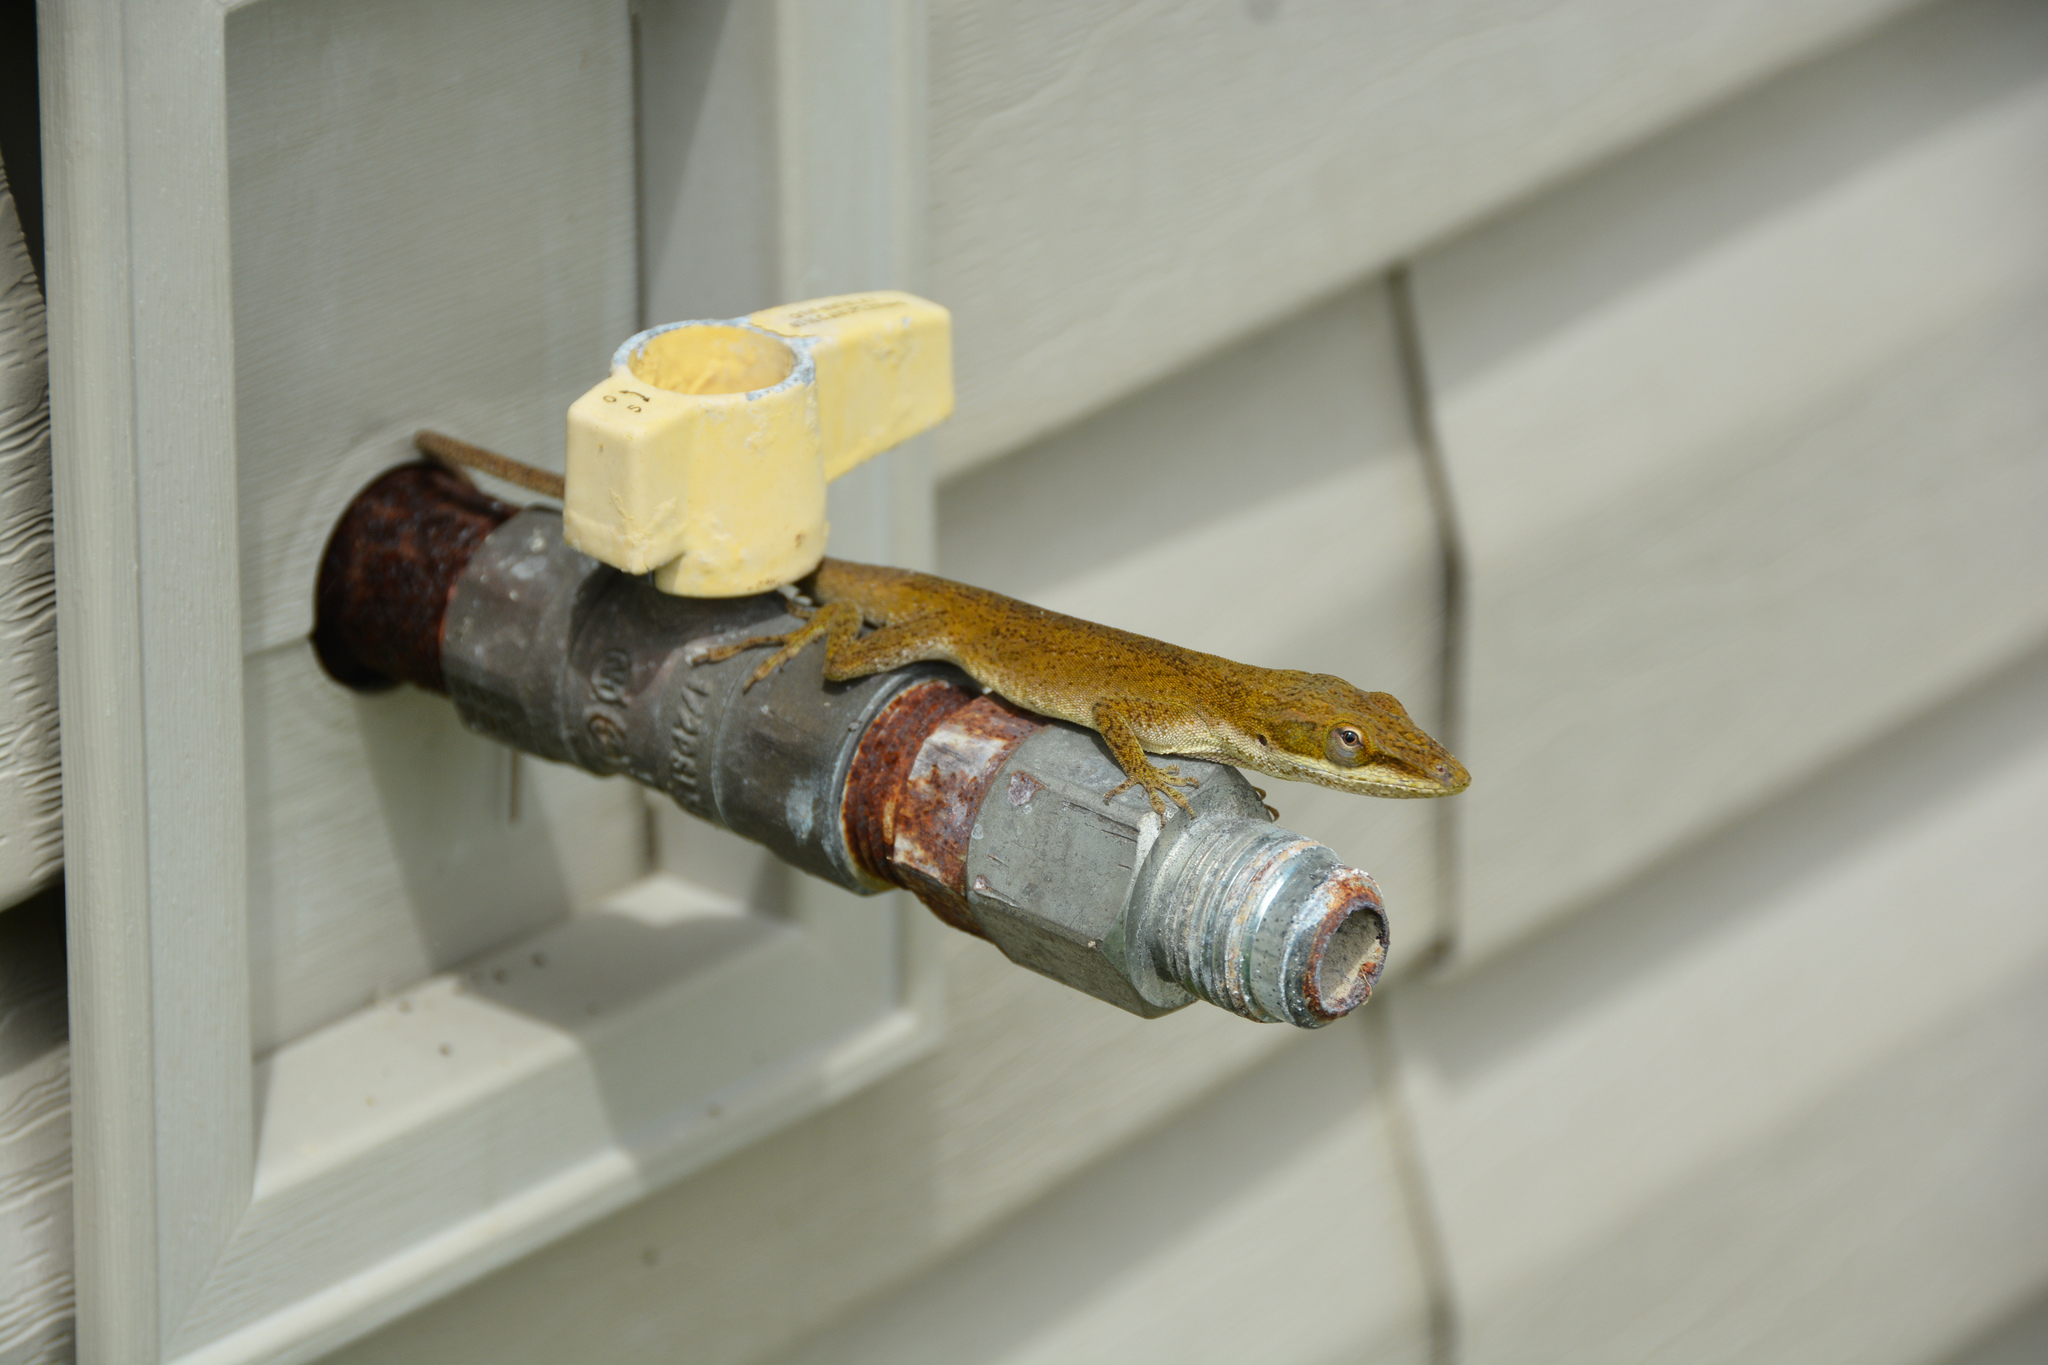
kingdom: Animalia
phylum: Chordata
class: Squamata
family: Dactyloidae
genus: Anolis
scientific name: Anolis carolinensis
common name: Green anole
